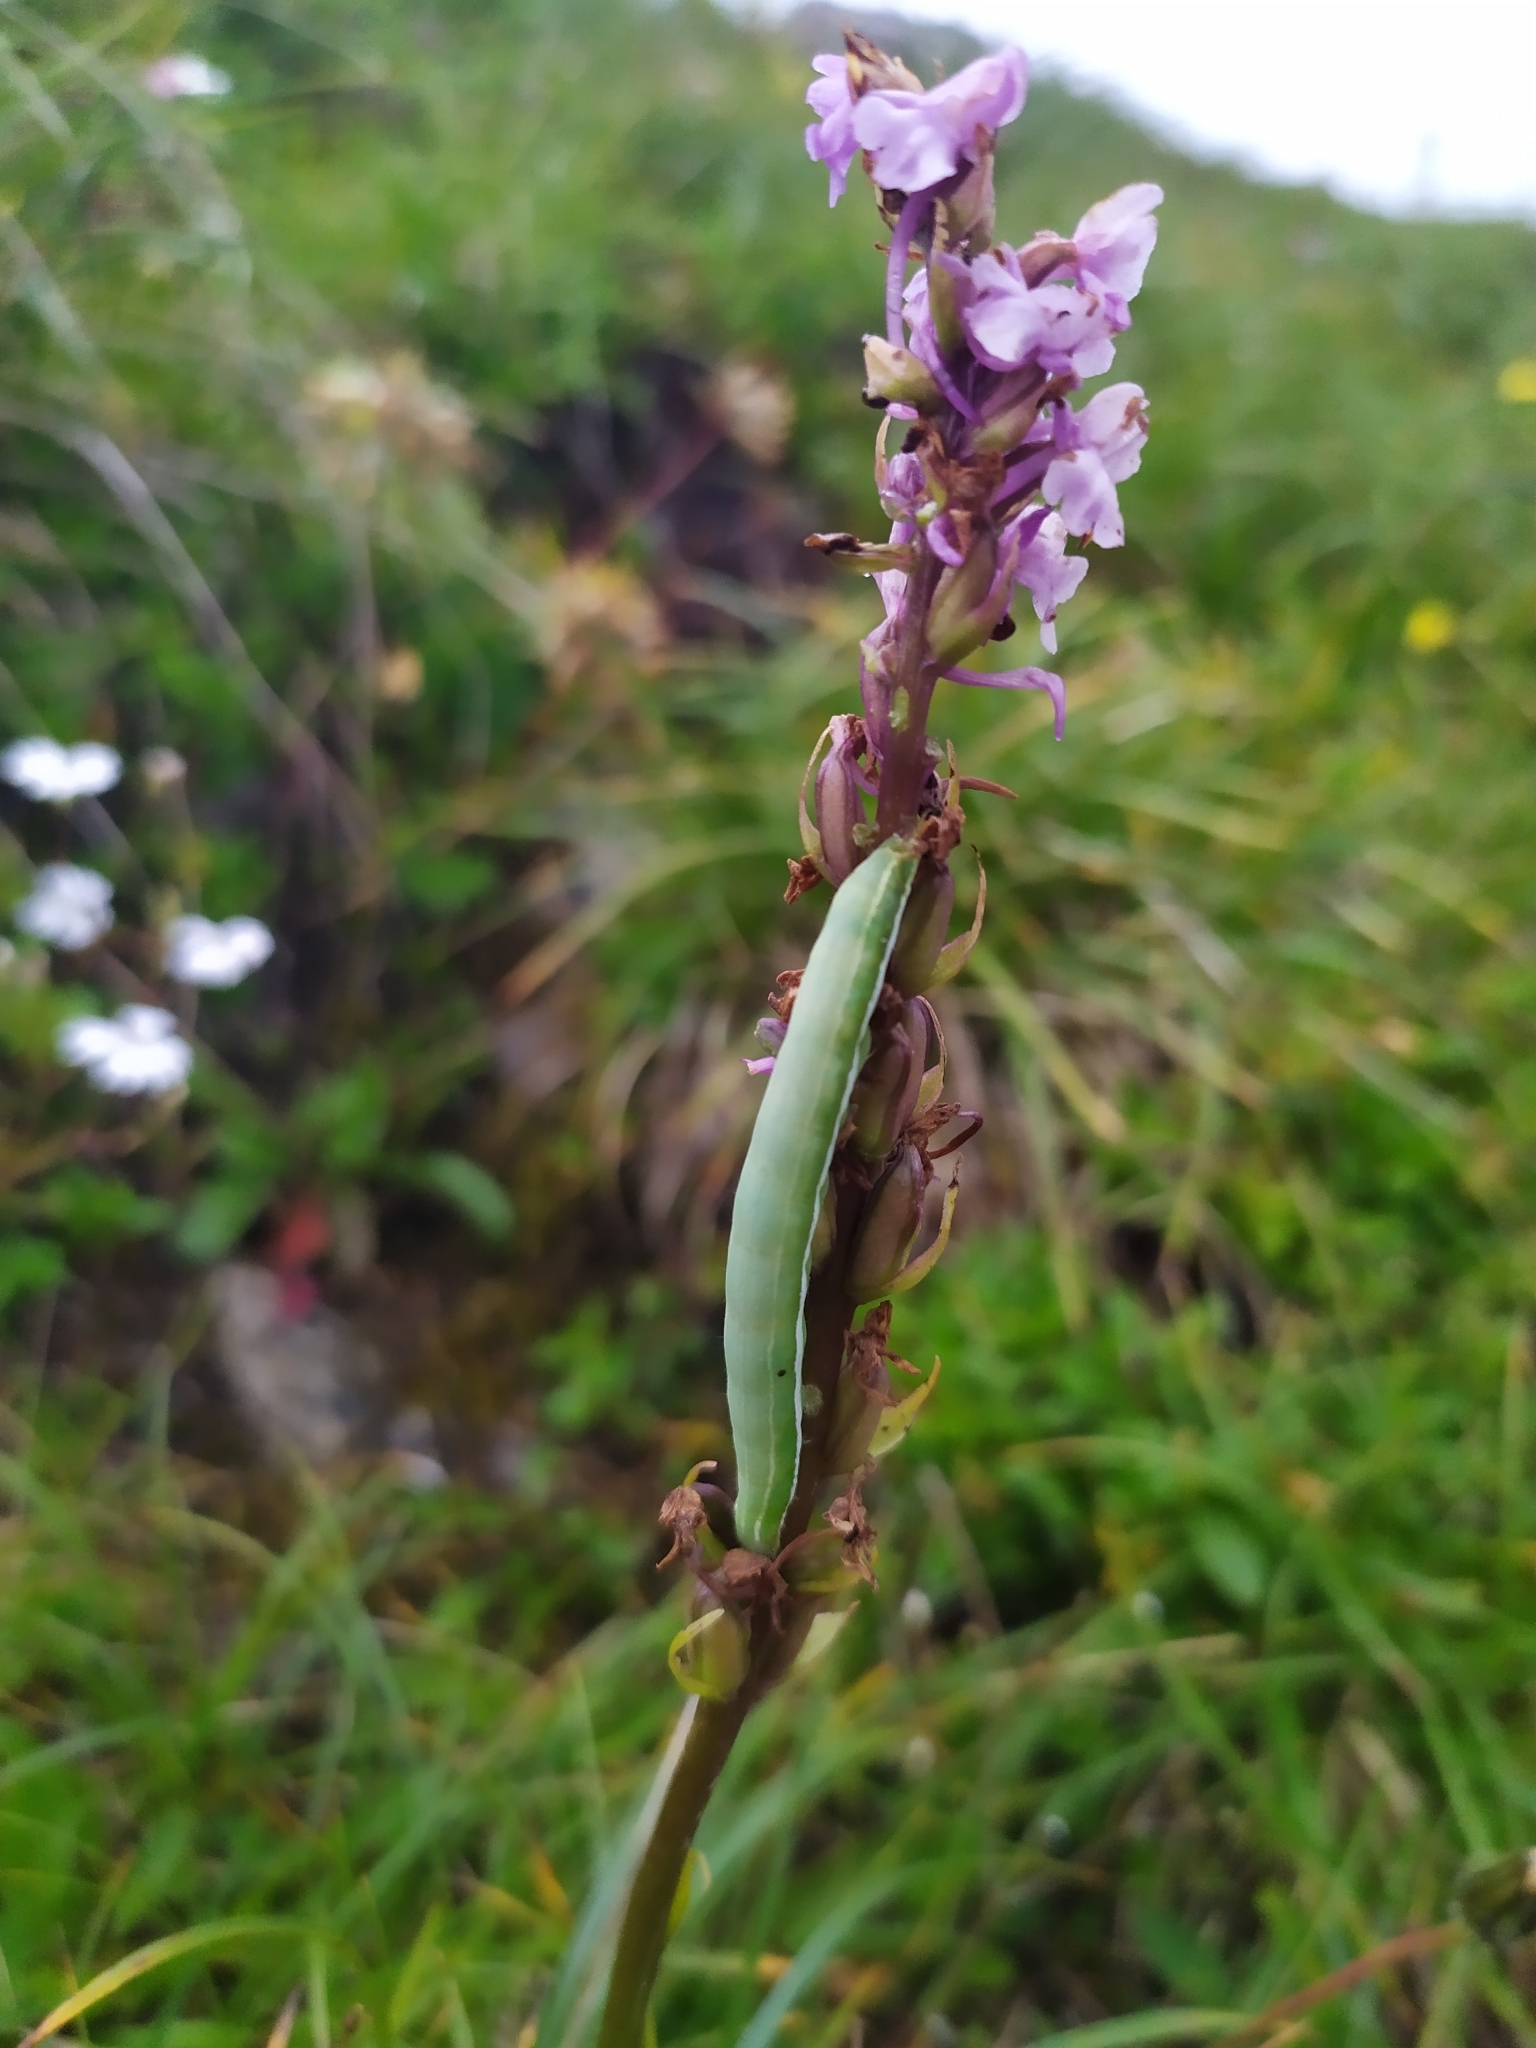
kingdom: Animalia
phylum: Arthropoda
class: Insecta
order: Lepidoptera
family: Noctuidae
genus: Antitype
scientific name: Antitype chi
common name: Grey chi
